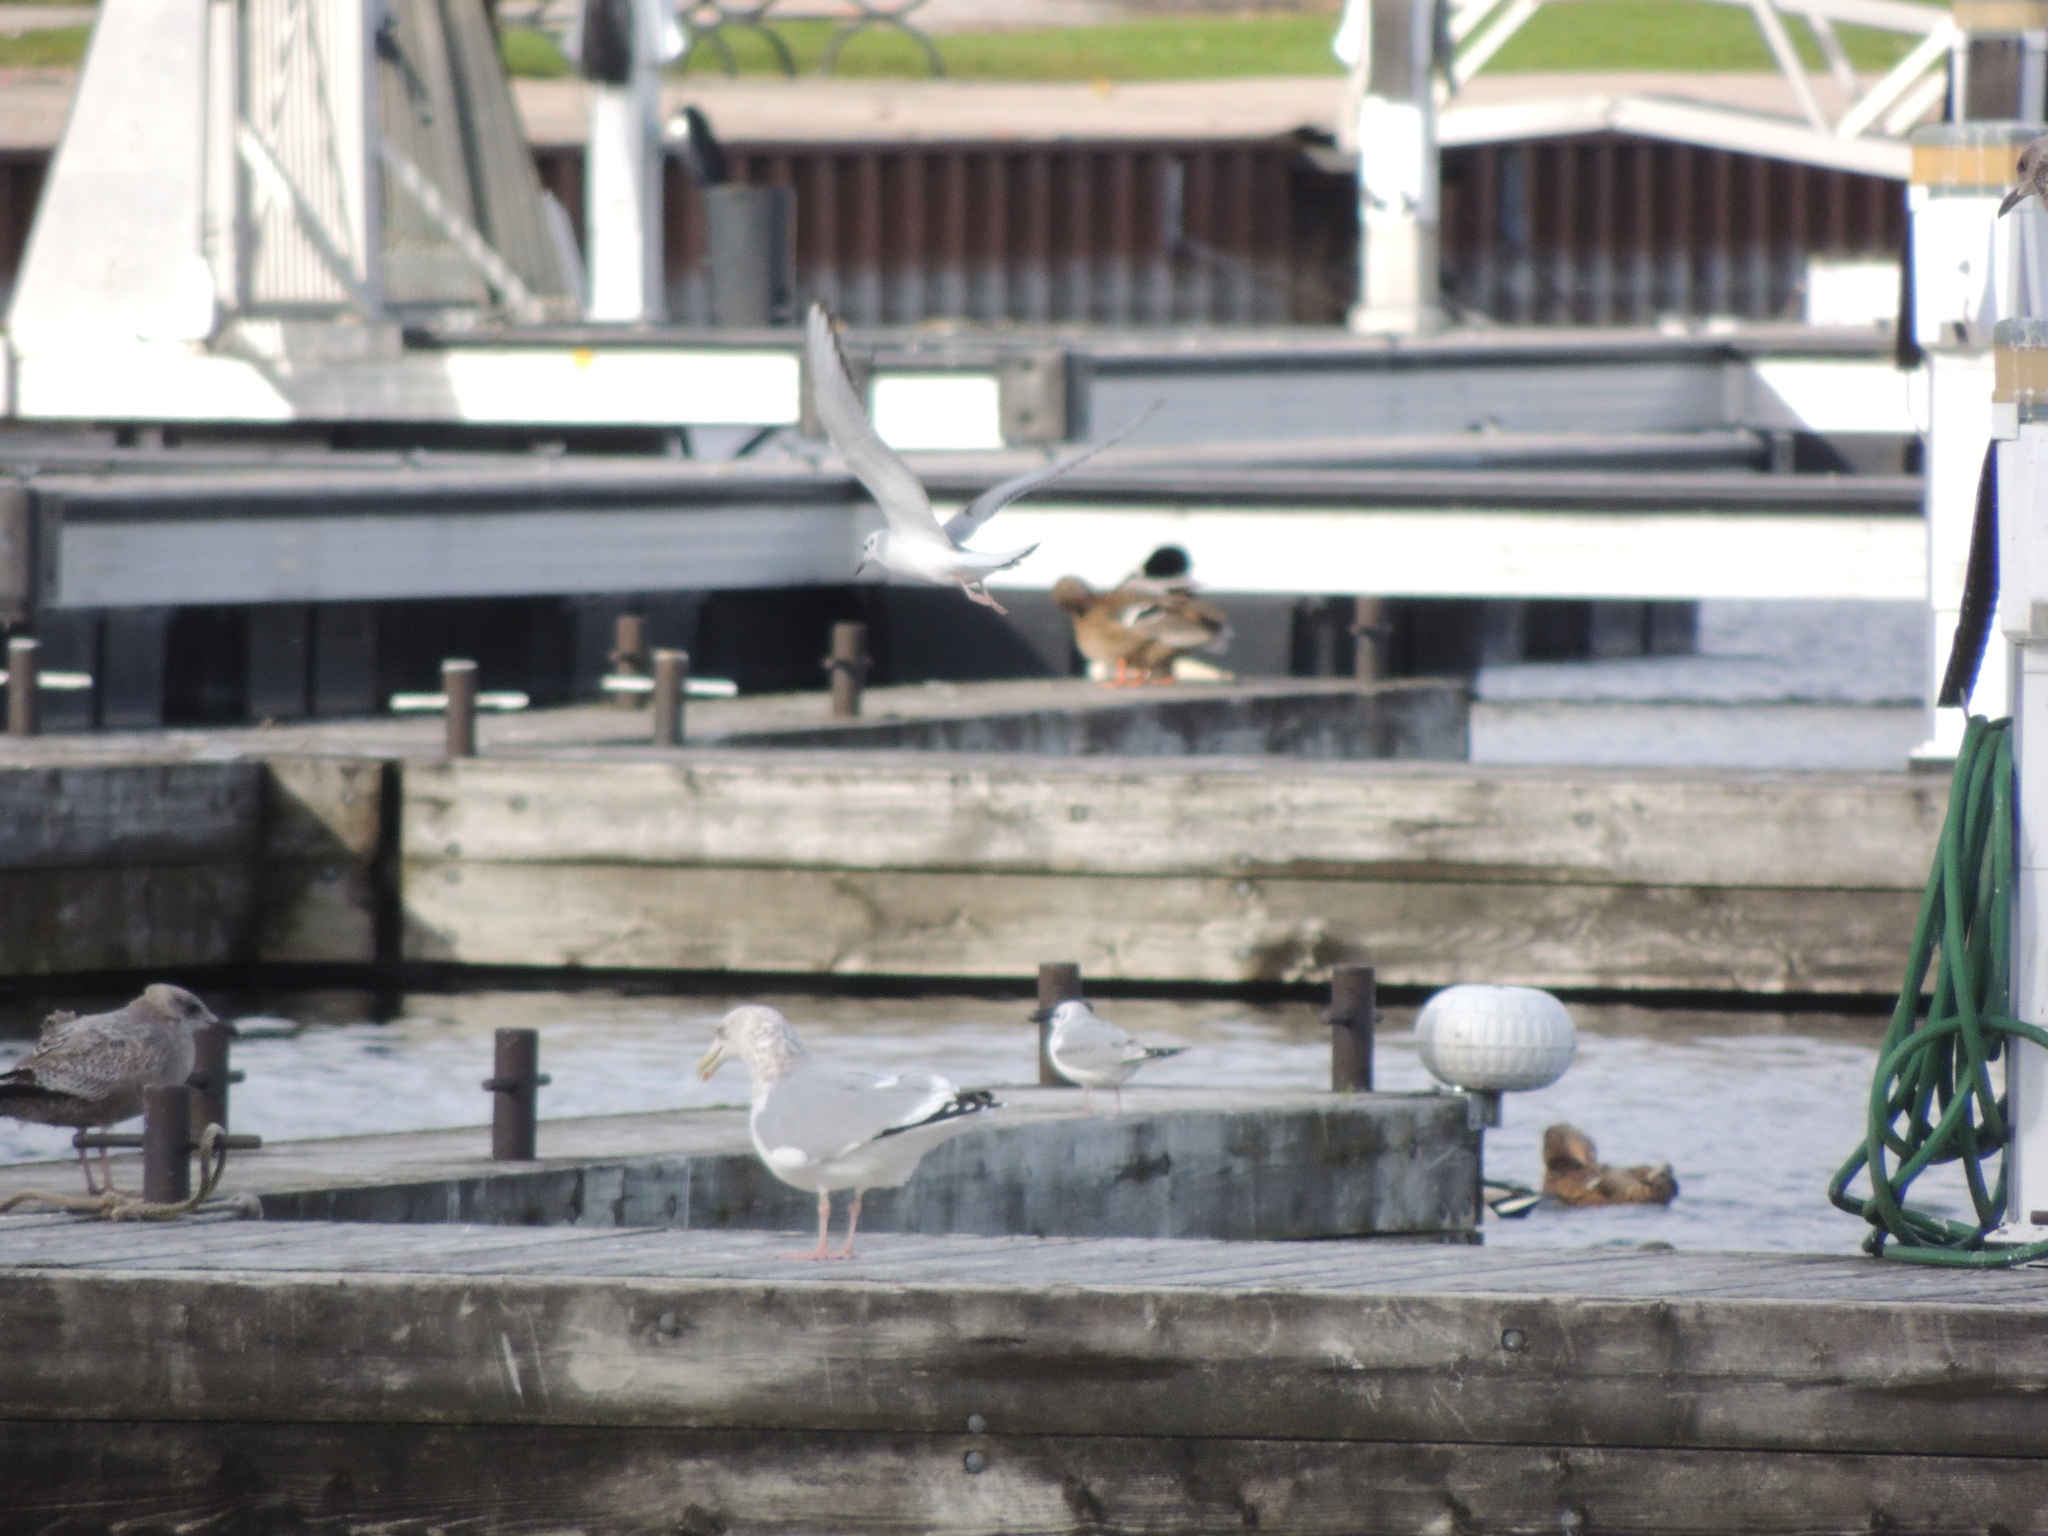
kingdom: Animalia
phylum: Chordata
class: Aves
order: Charadriiformes
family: Laridae
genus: Chroicocephalus
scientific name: Chroicocephalus philadelphia
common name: Bonaparte's gull
